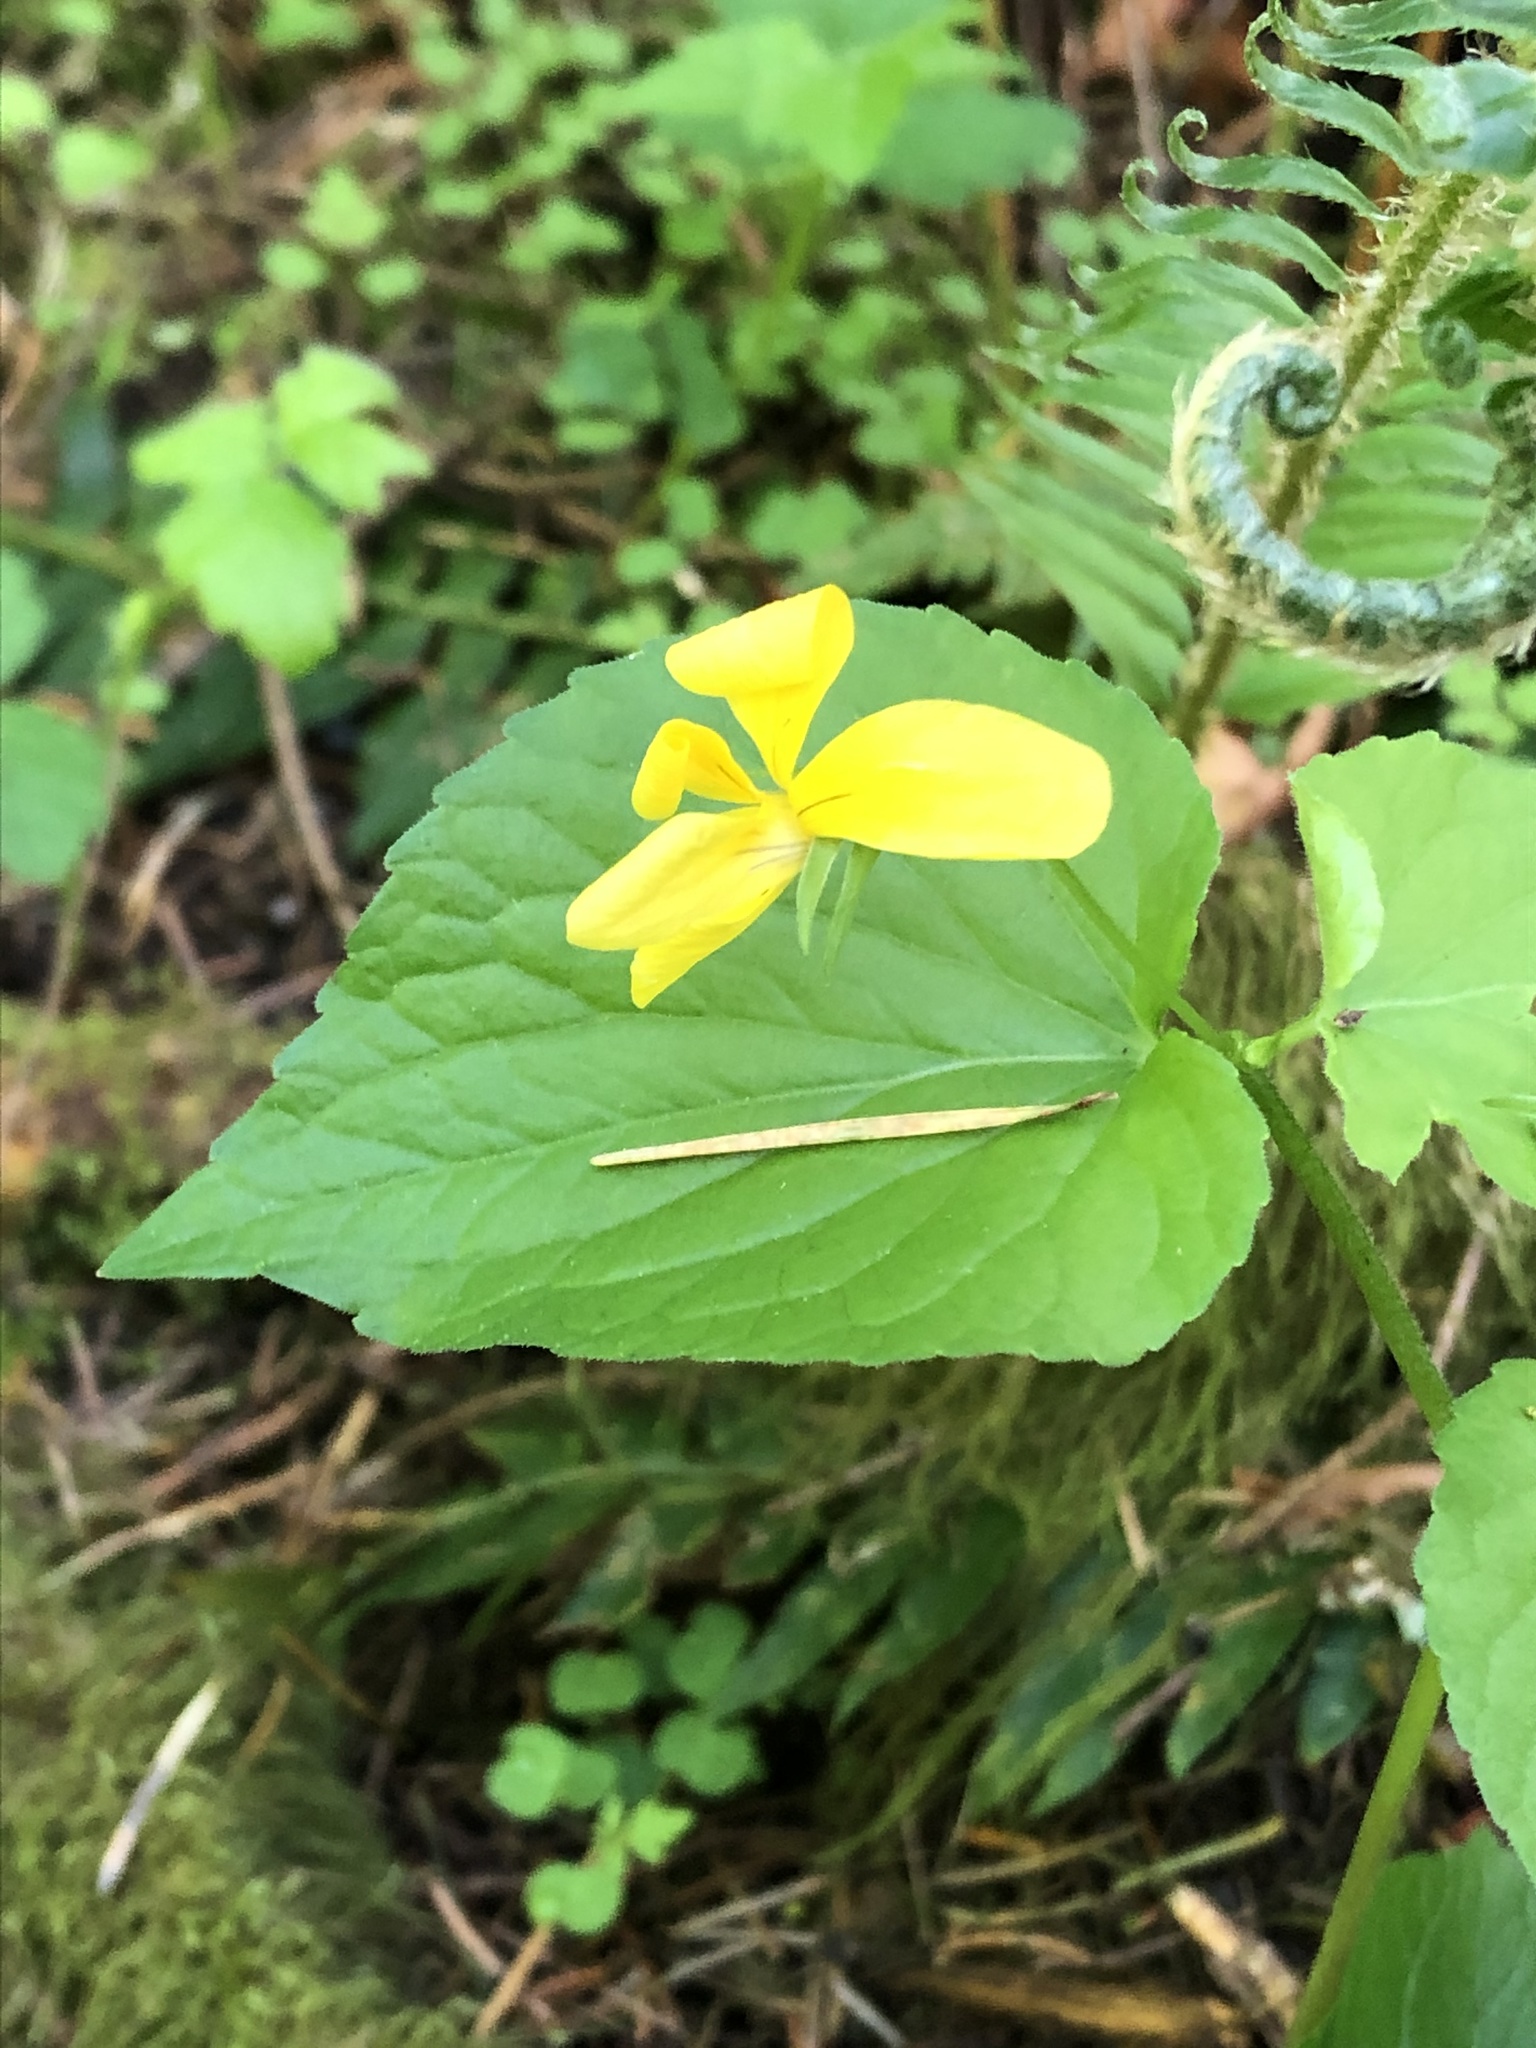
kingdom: Plantae
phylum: Tracheophyta
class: Magnoliopsida
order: Malpighiales
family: Violaceae
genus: Viola
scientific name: Viola glabella
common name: Stream violet
